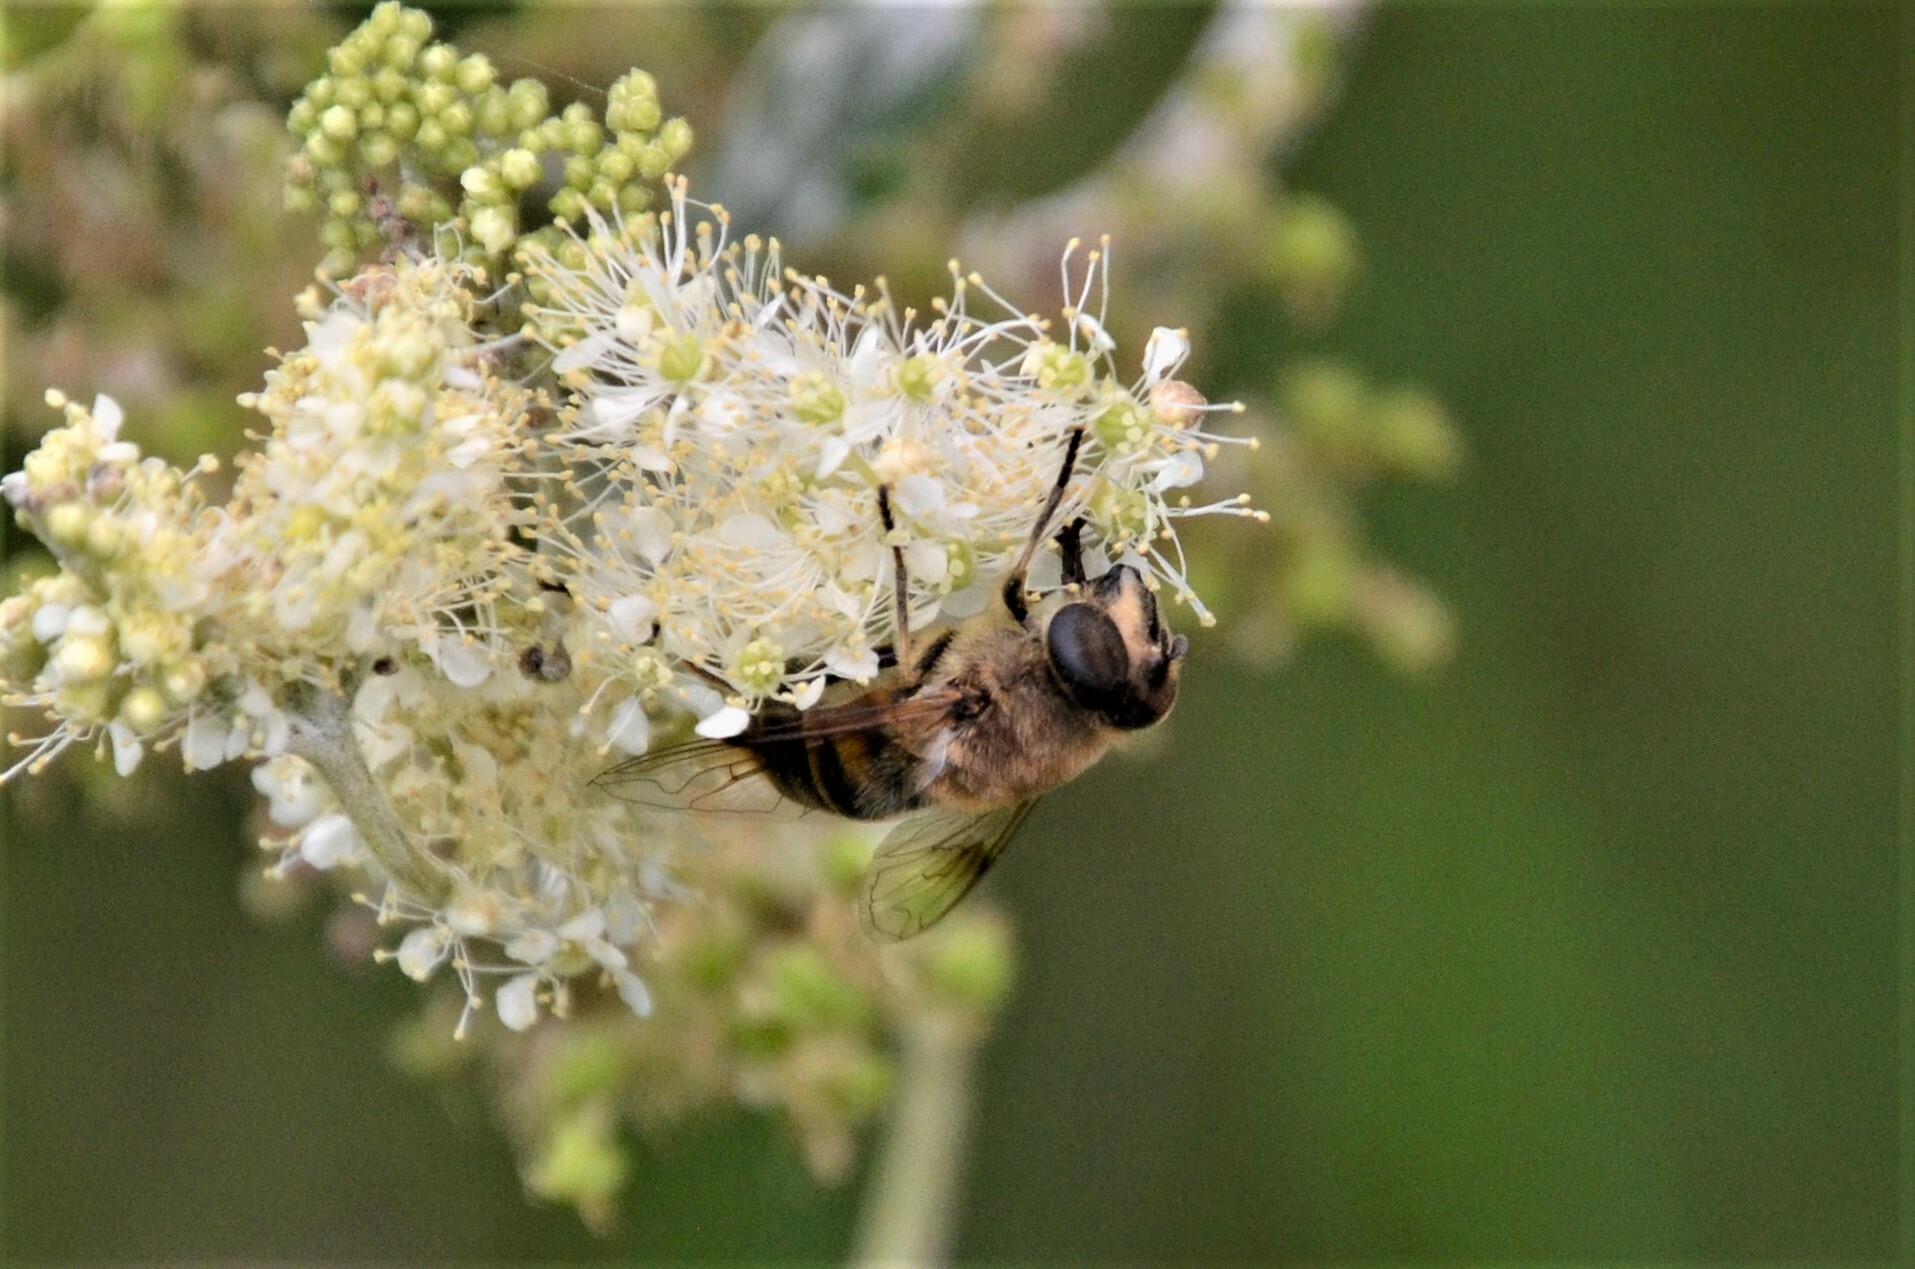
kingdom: Animalia
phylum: Arthropoda
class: Insecta
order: Diptera
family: Syrphidae
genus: Eristalis
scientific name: Eristalis tenax
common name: Drone fly
